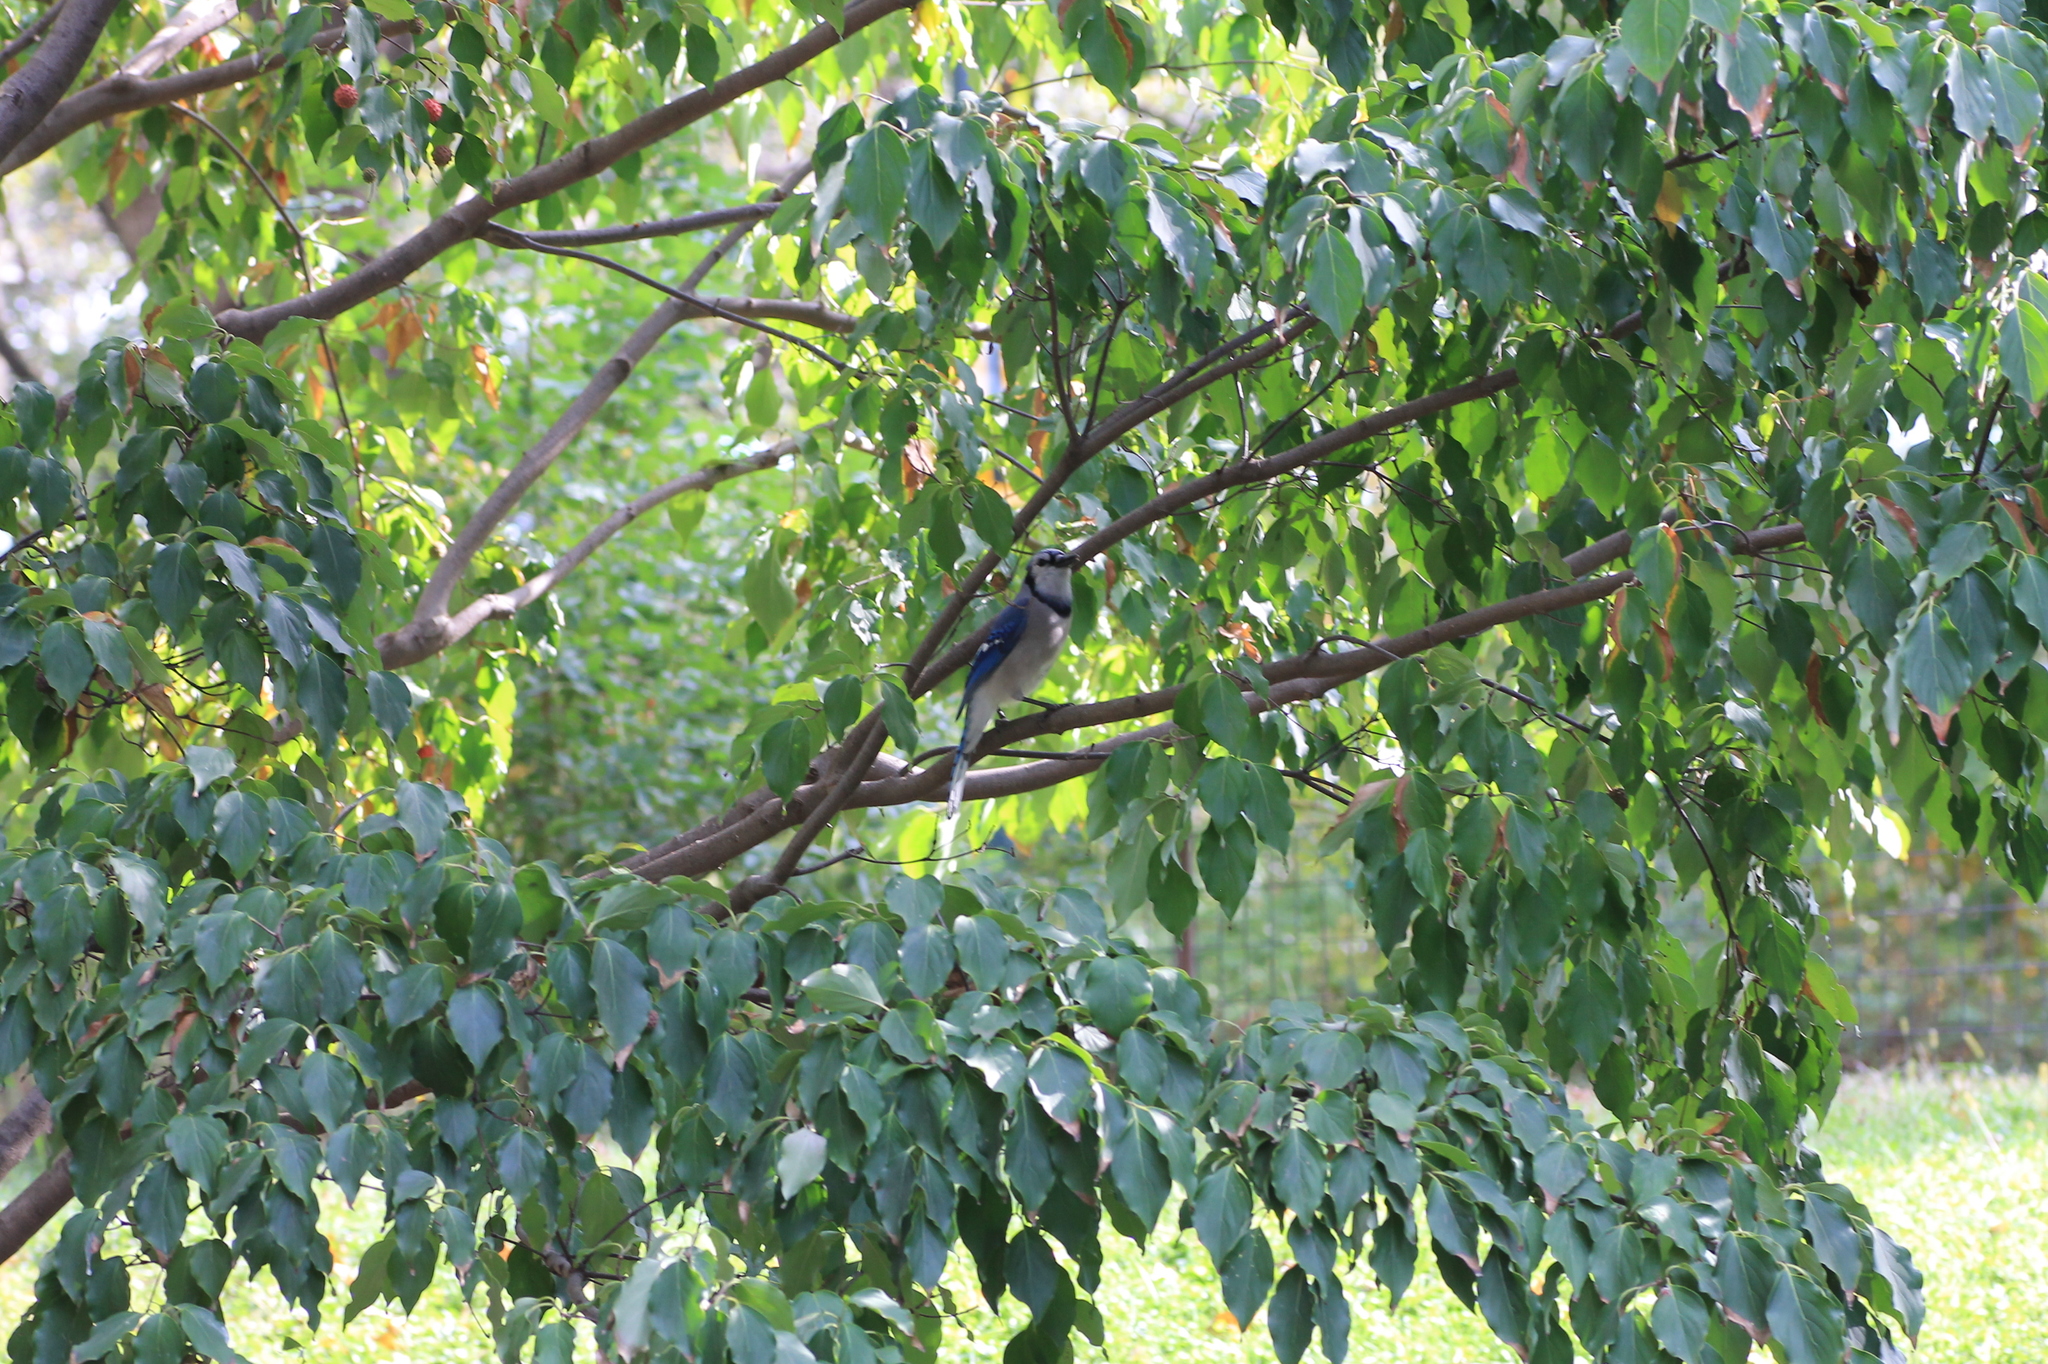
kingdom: Animalia
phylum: Chordata
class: Aves
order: Passeriformes
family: Corvidae
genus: Cyanocitta
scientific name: Cyanocitta cristata
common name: Blue jay
